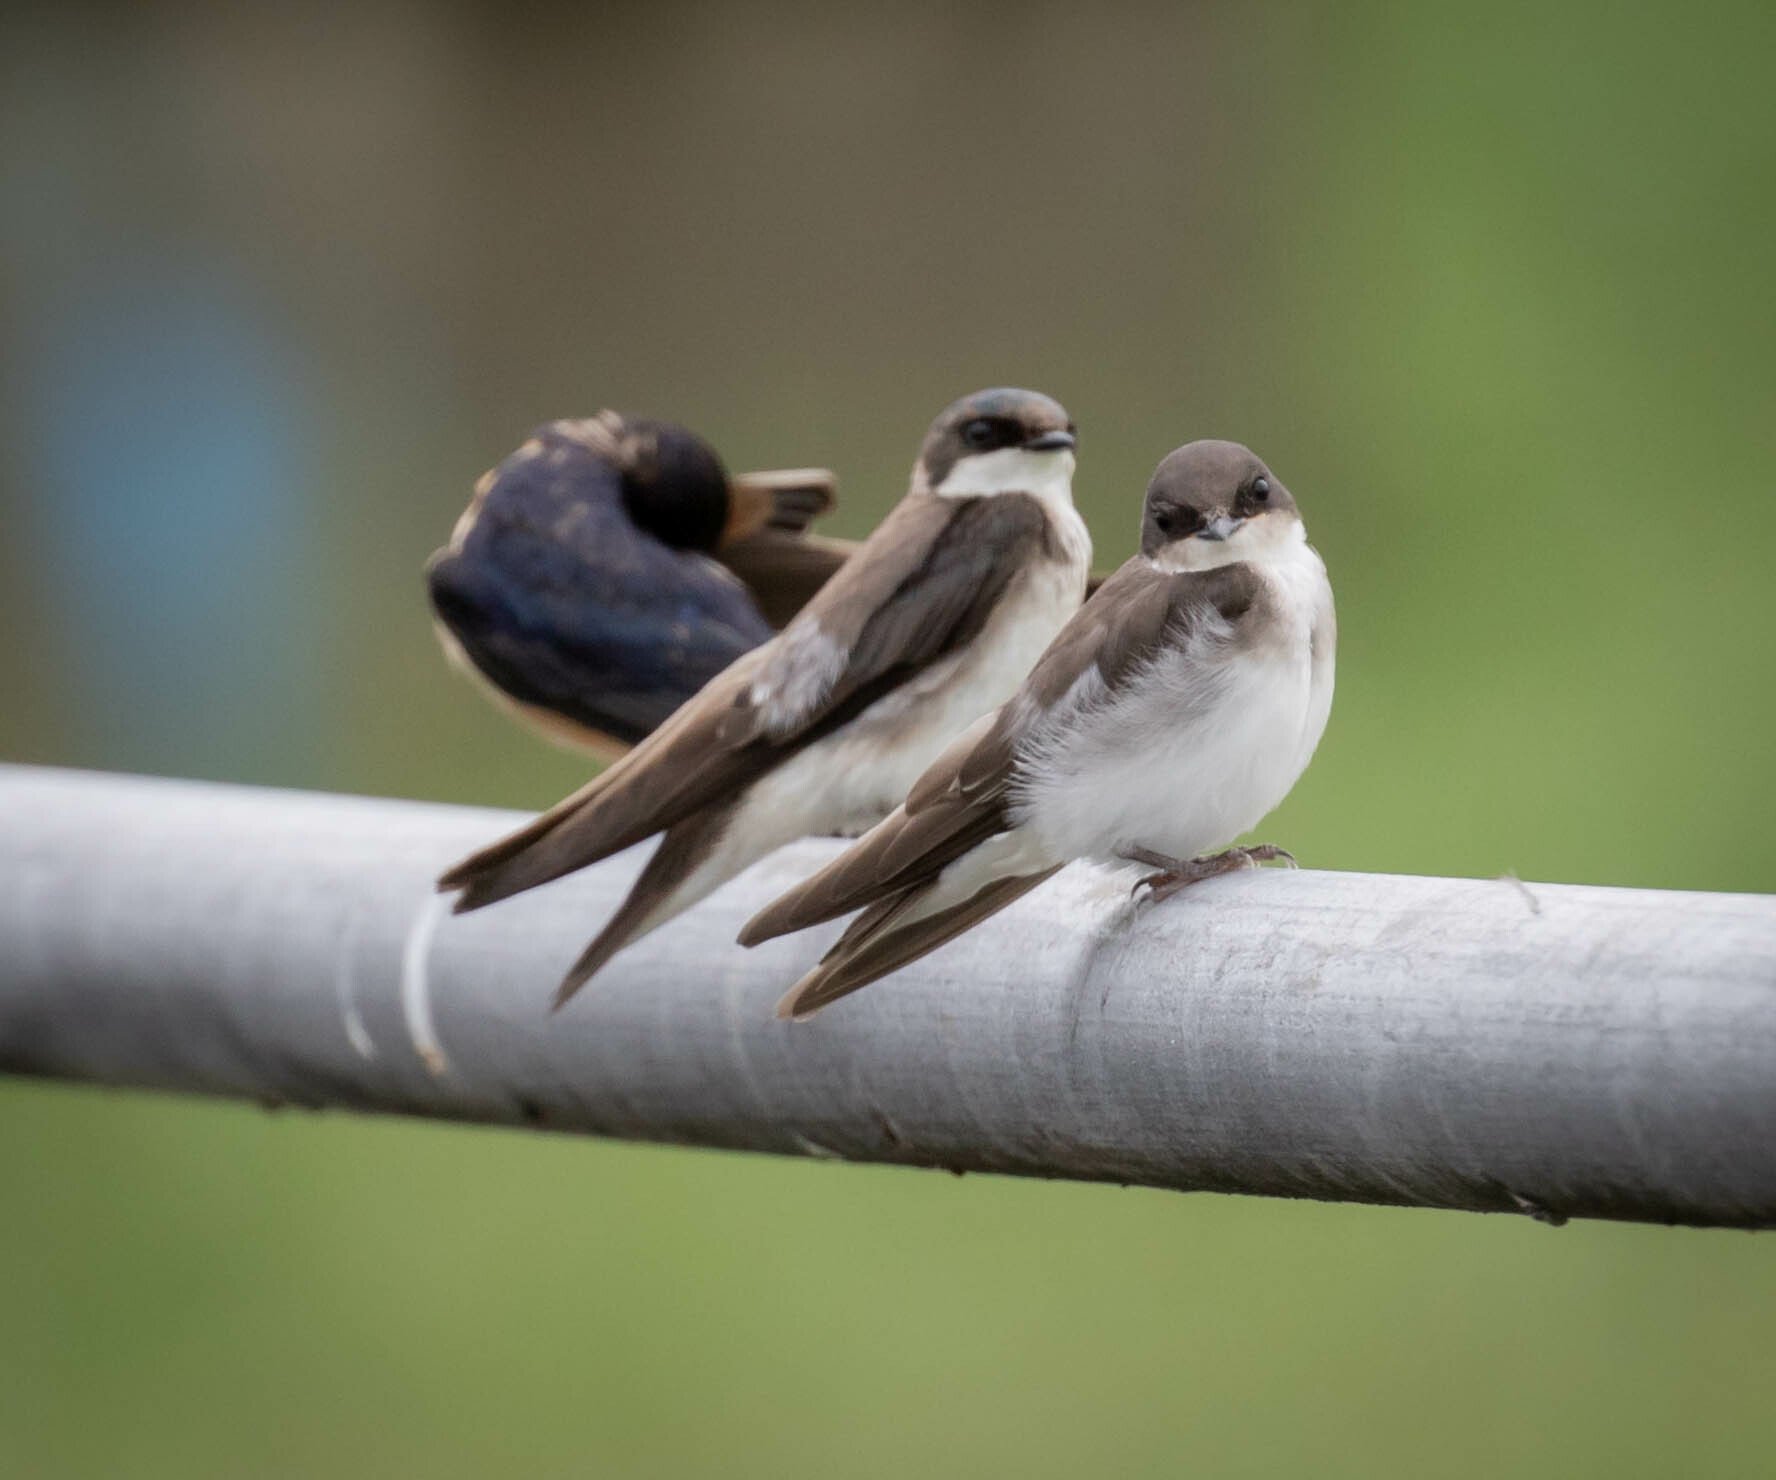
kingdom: Animalia
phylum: Chordata
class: Aves
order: Passeriformes
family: Hirundinidae
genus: Tachycineta
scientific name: Tachycineta bicolor
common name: Tree swallow
